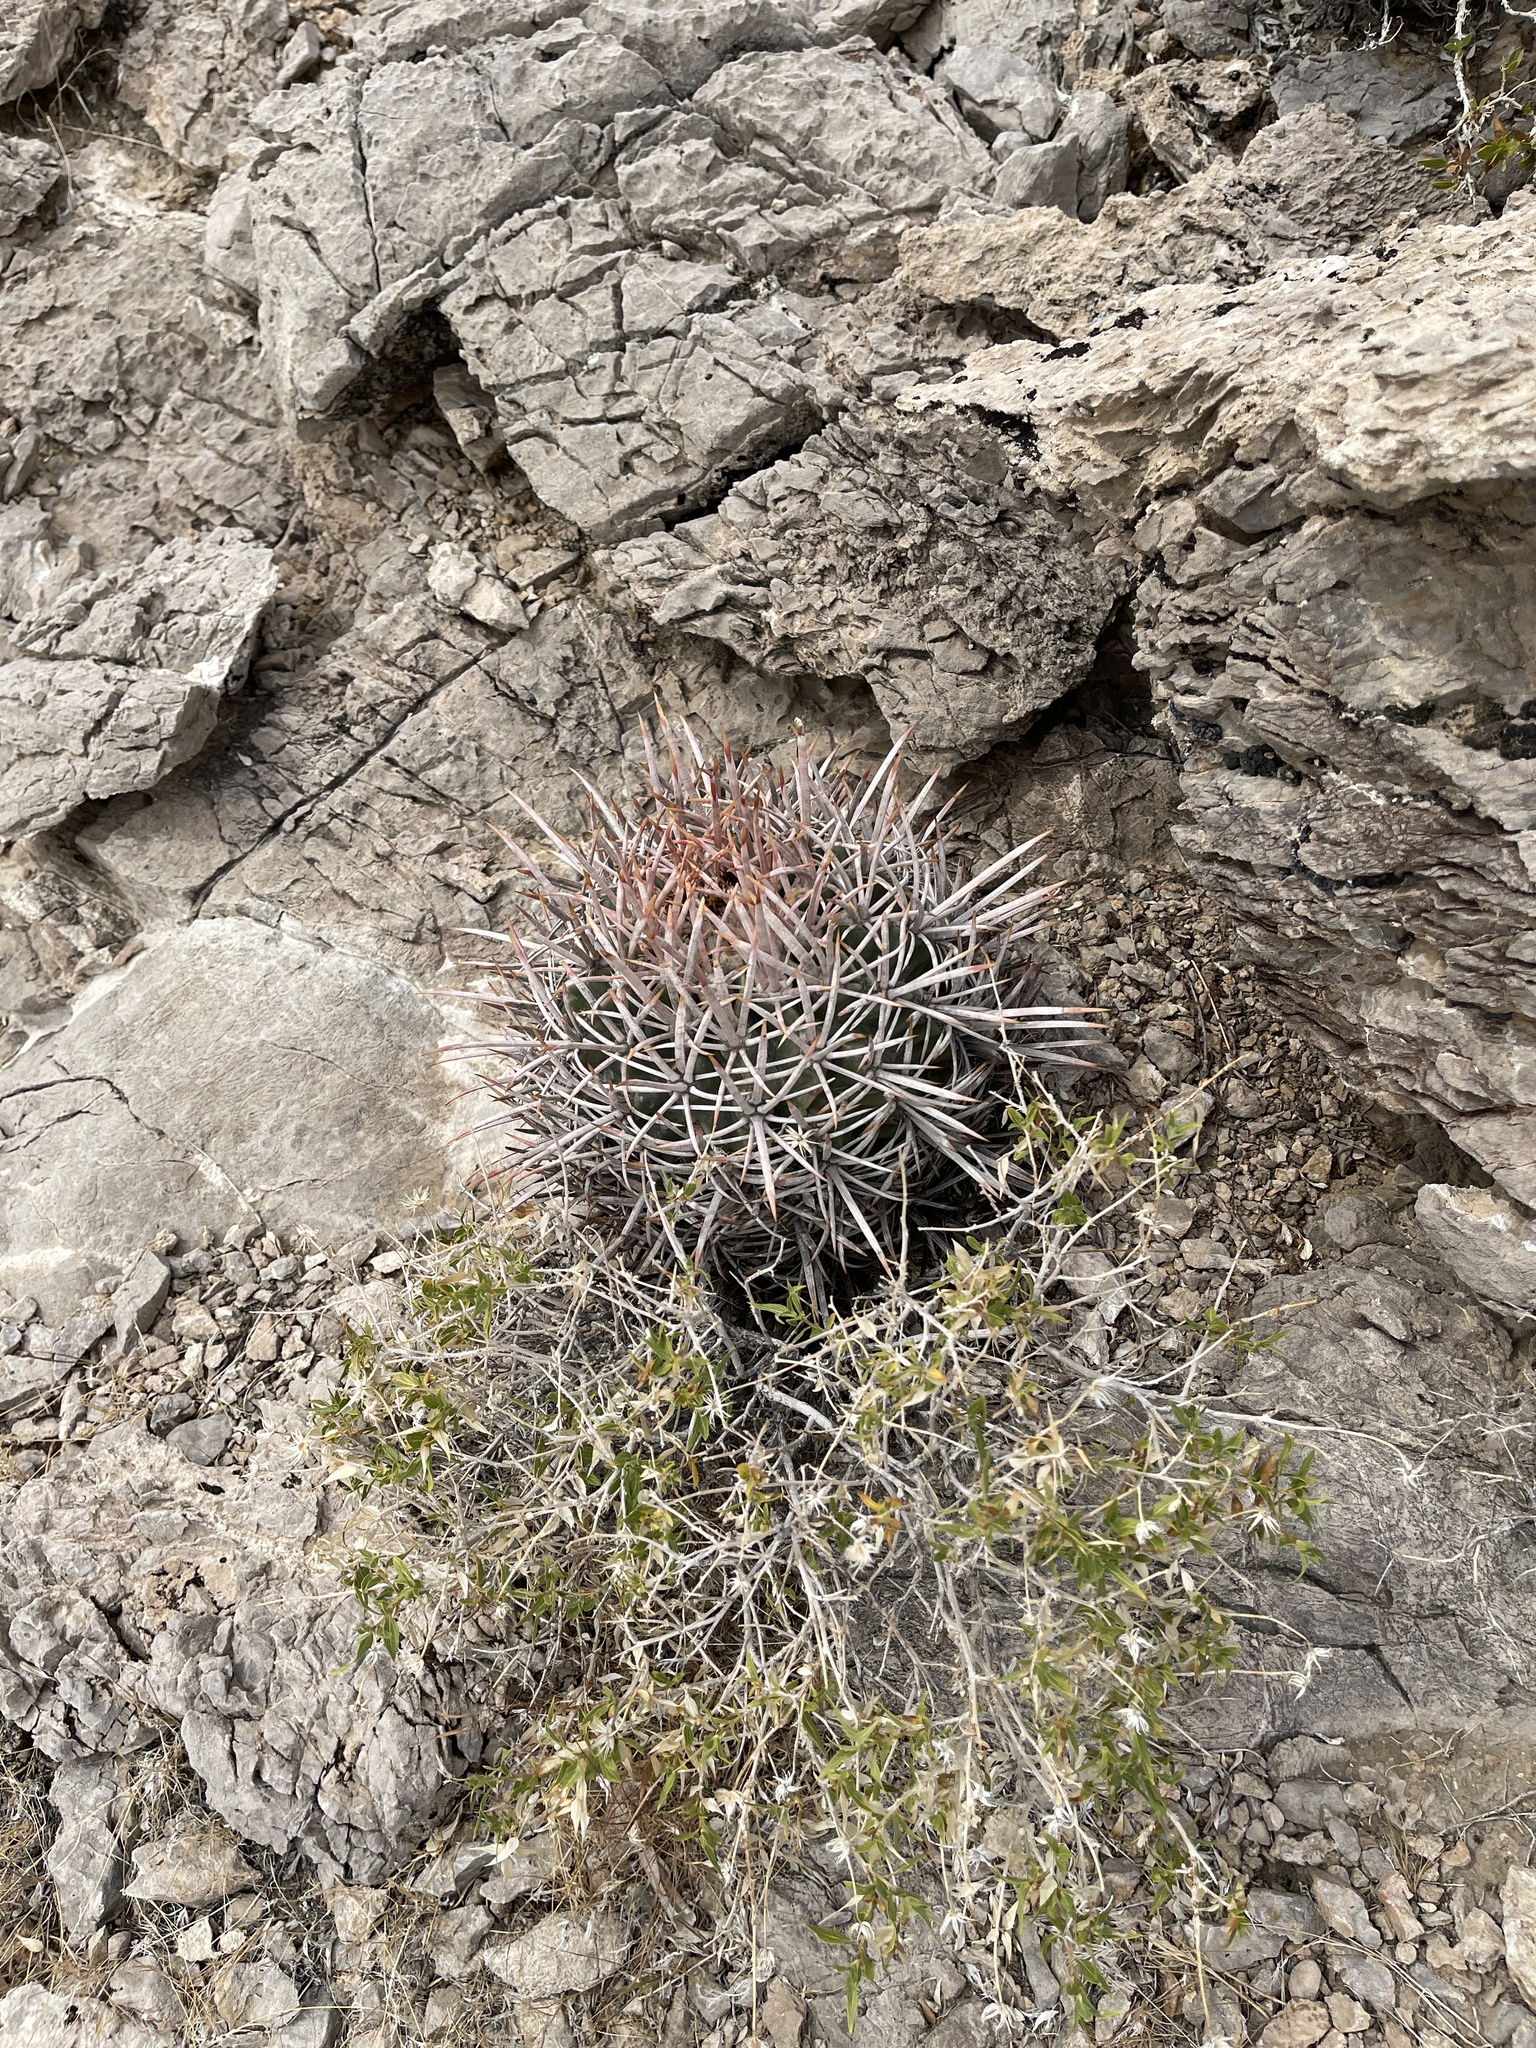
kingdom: Plantae
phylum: Tracheophyta
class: Magnoliopsida
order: Caryophyllales
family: Cactaceae
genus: Echinocactus
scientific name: Echinocactus polycephalus
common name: Cottontop cactus
